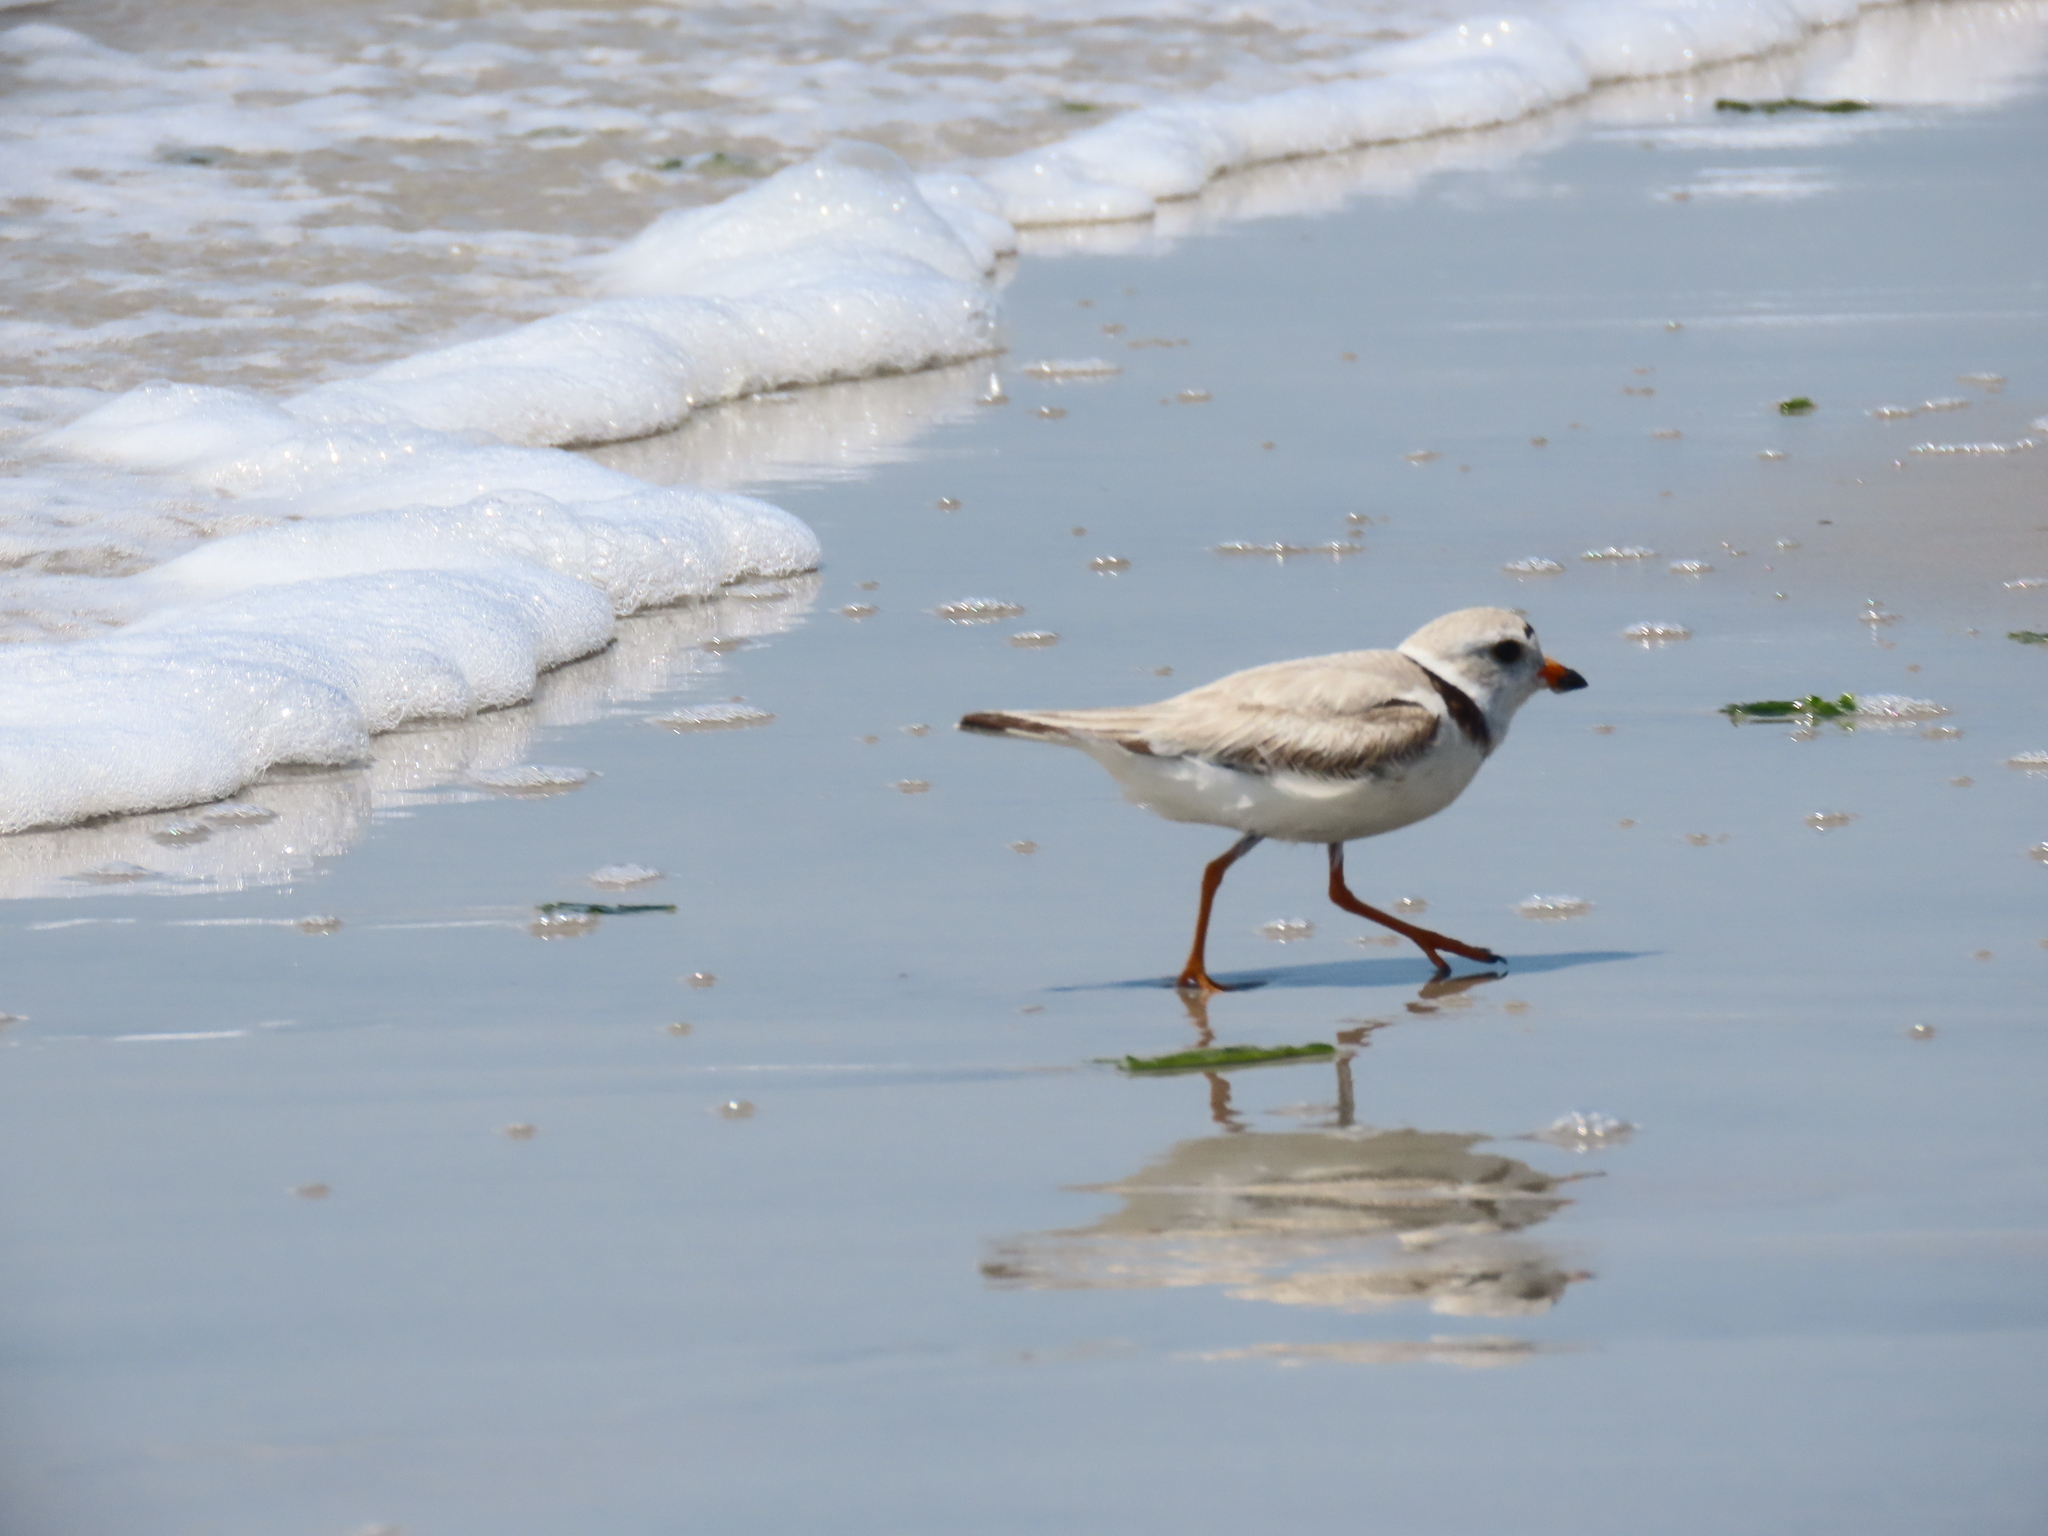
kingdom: Animalia
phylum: Chordata
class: Aves
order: Charadriiformes
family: Charadriidae
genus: Charadrius
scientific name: Charadrius melodus
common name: Piping plover
